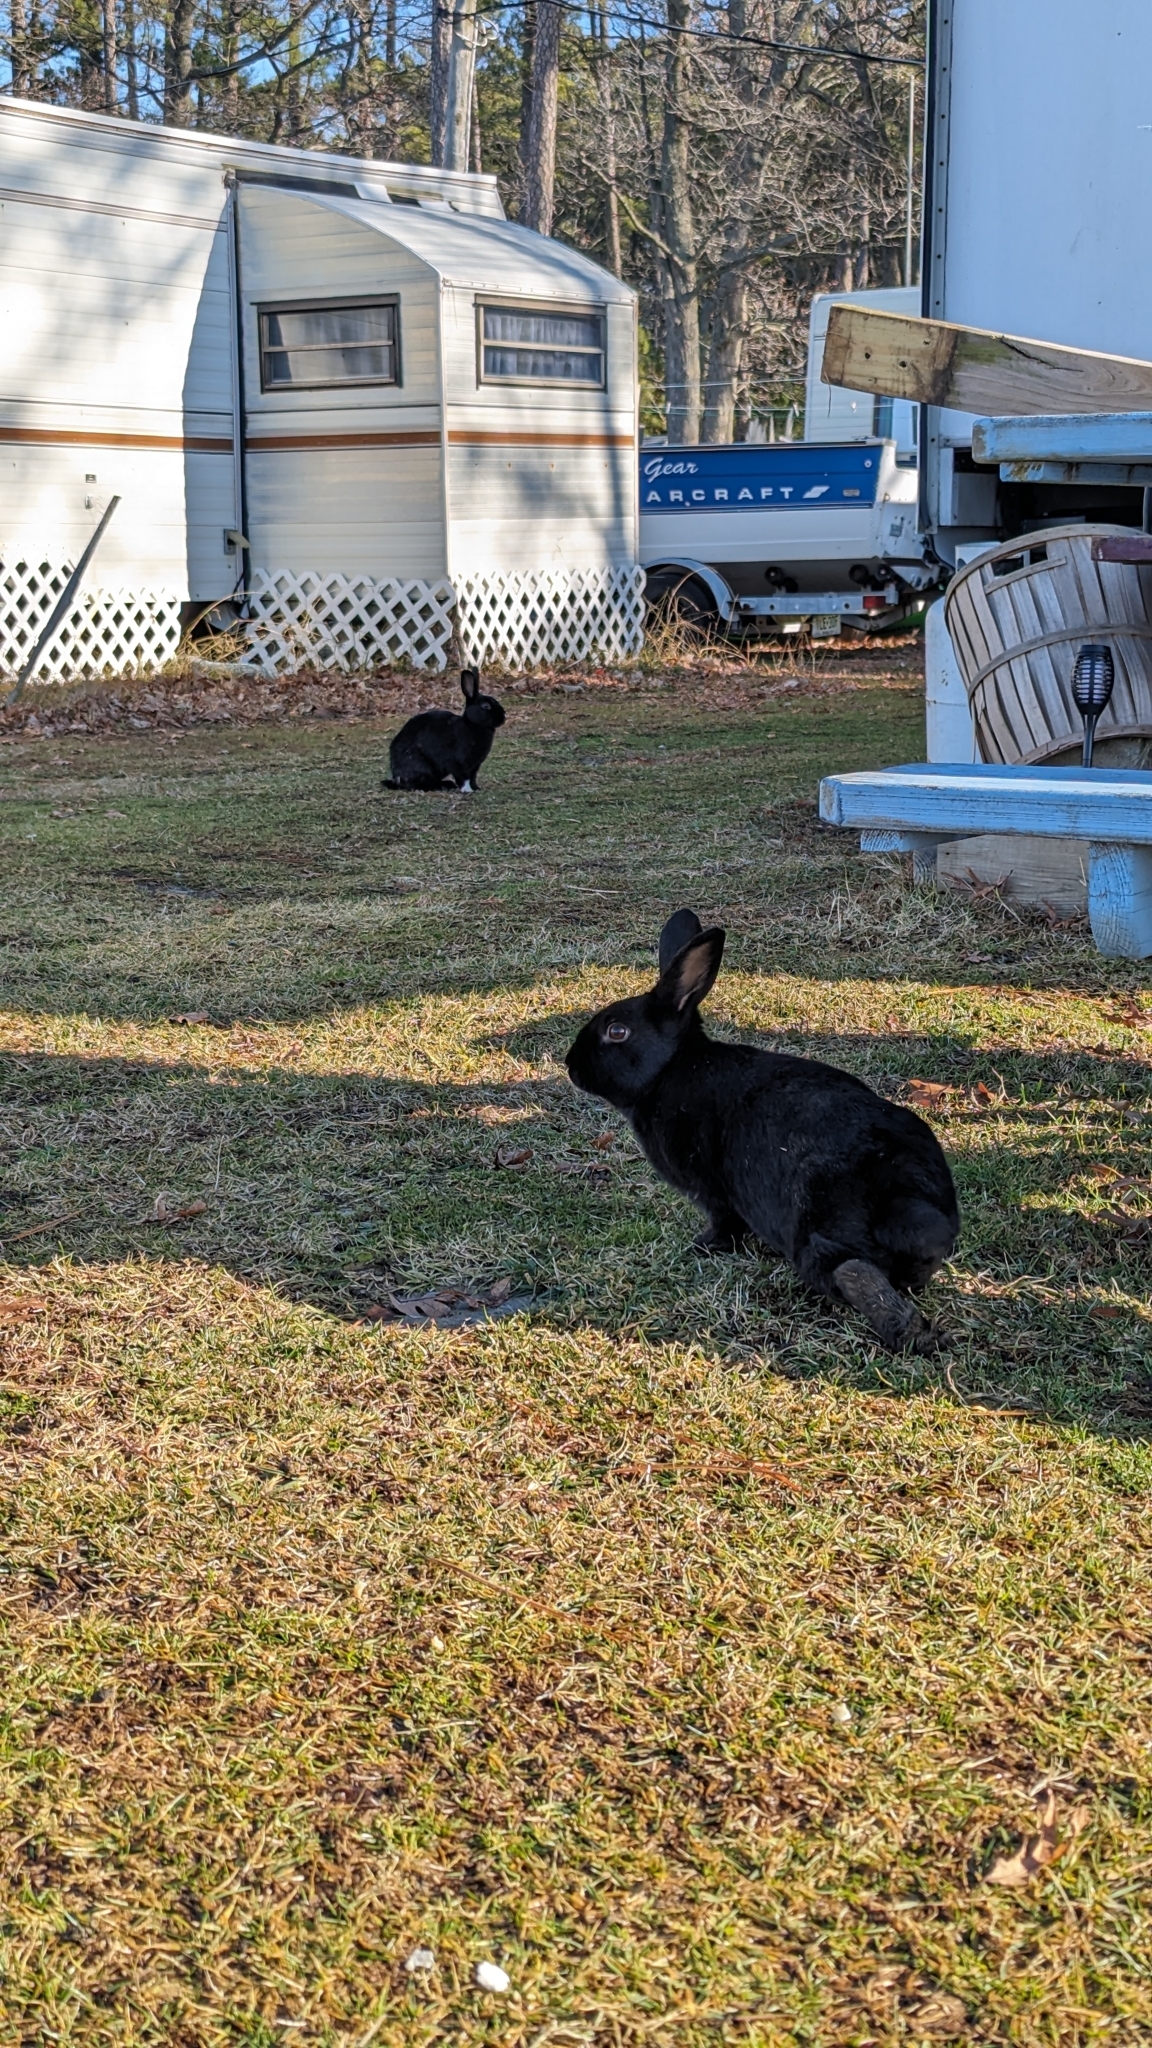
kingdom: Animalia
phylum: Chordata
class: Mammalia
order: Lagomorpha
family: Leporidae
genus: Oryctolagus
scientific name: Oryctolagus cuniculus
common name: European rabbit
